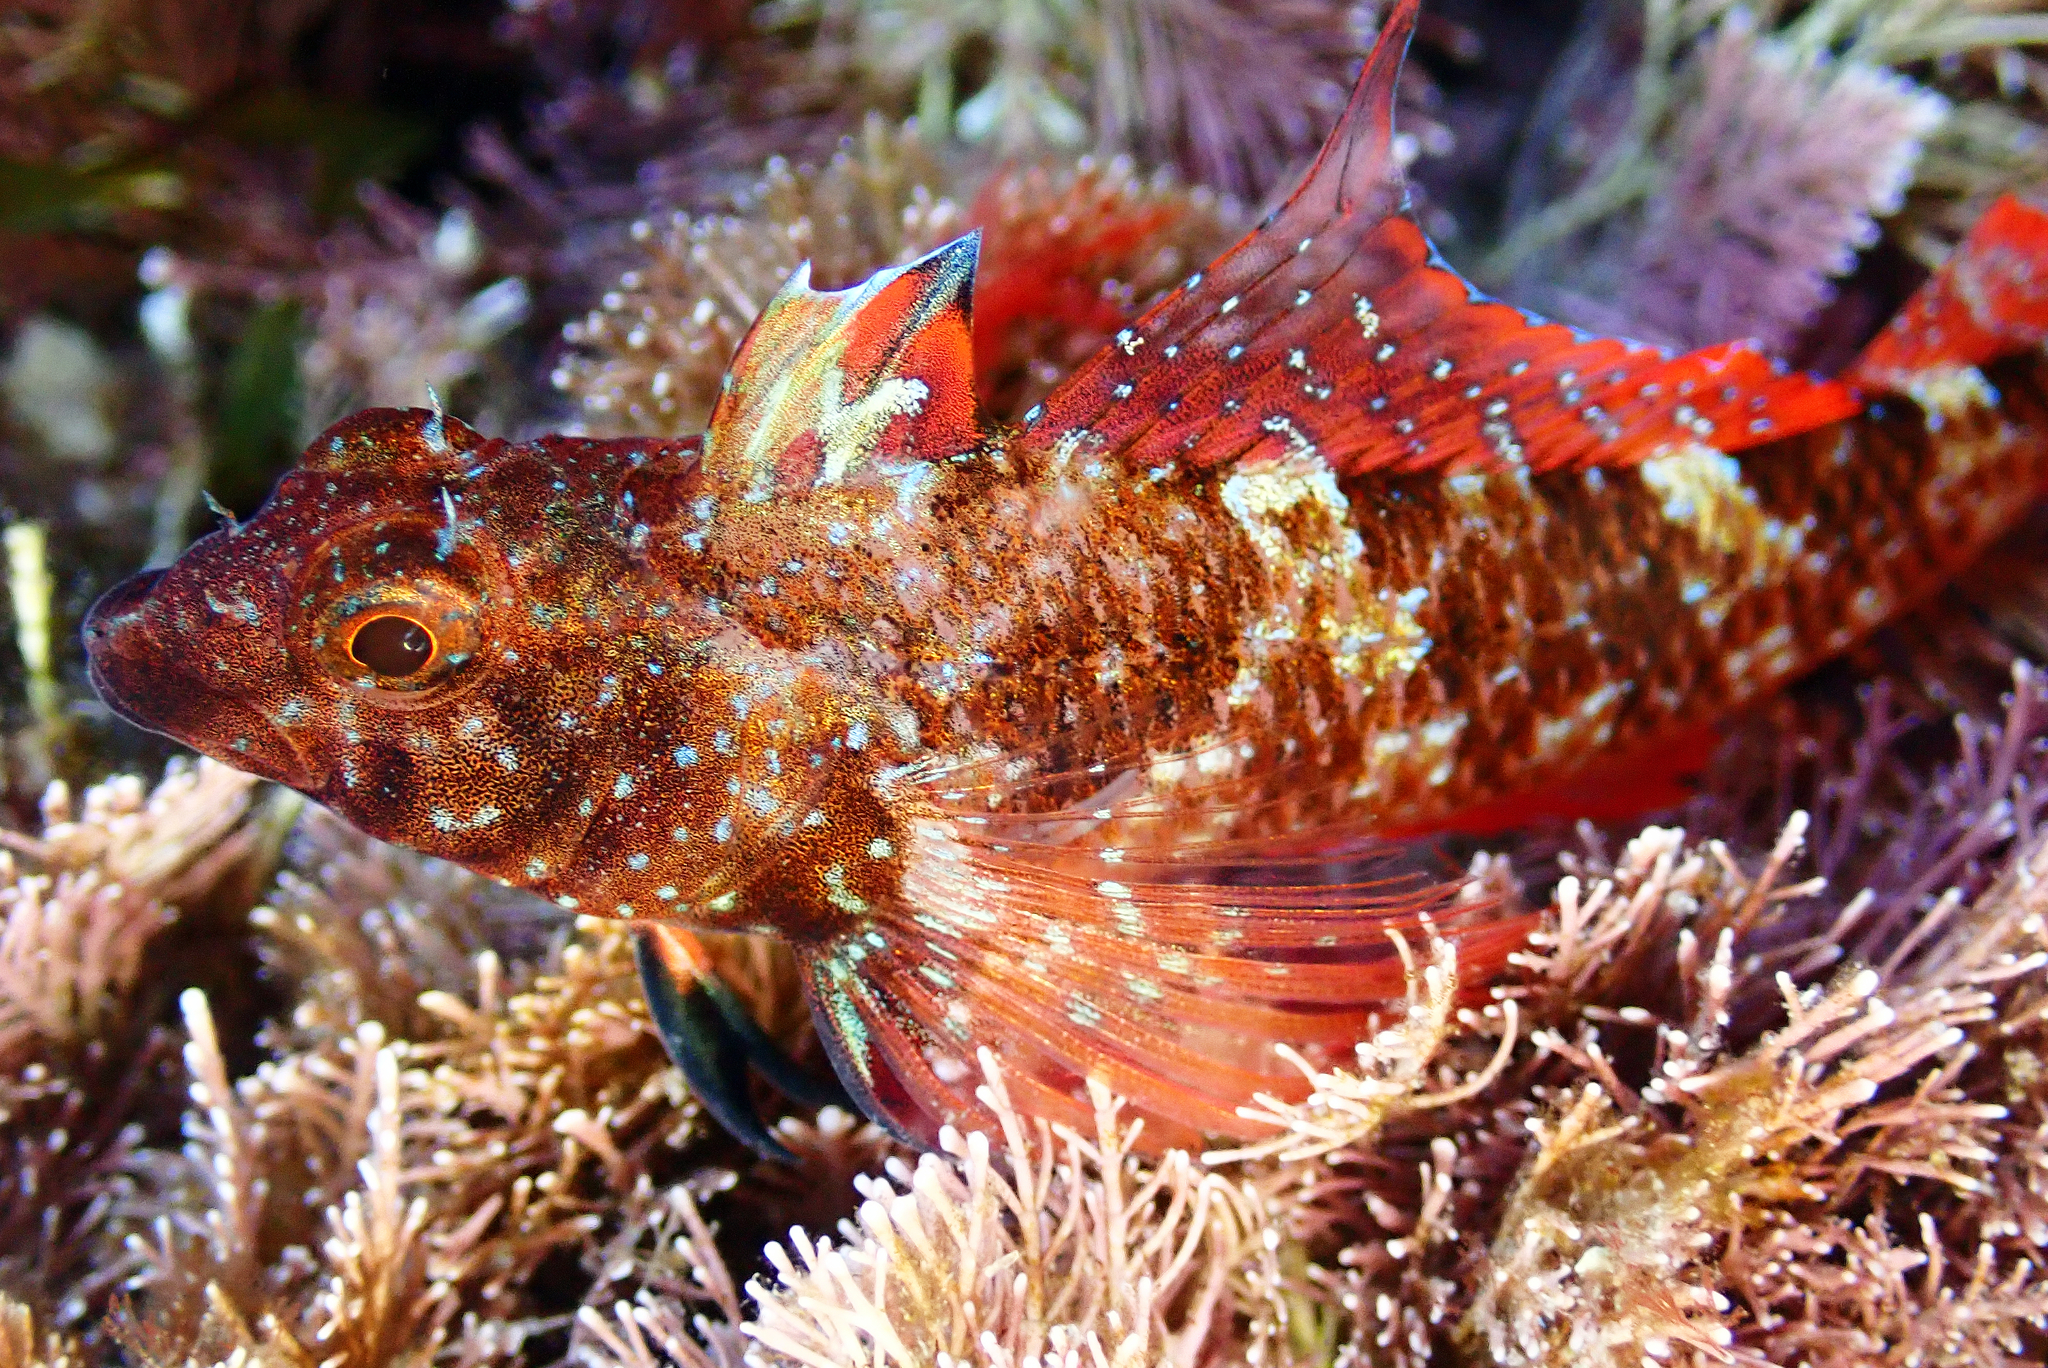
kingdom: Animalia
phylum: Chordata
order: Perciformes
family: Tripterygiidae
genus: Tripterygion
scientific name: Tripterygion tripteronotum
